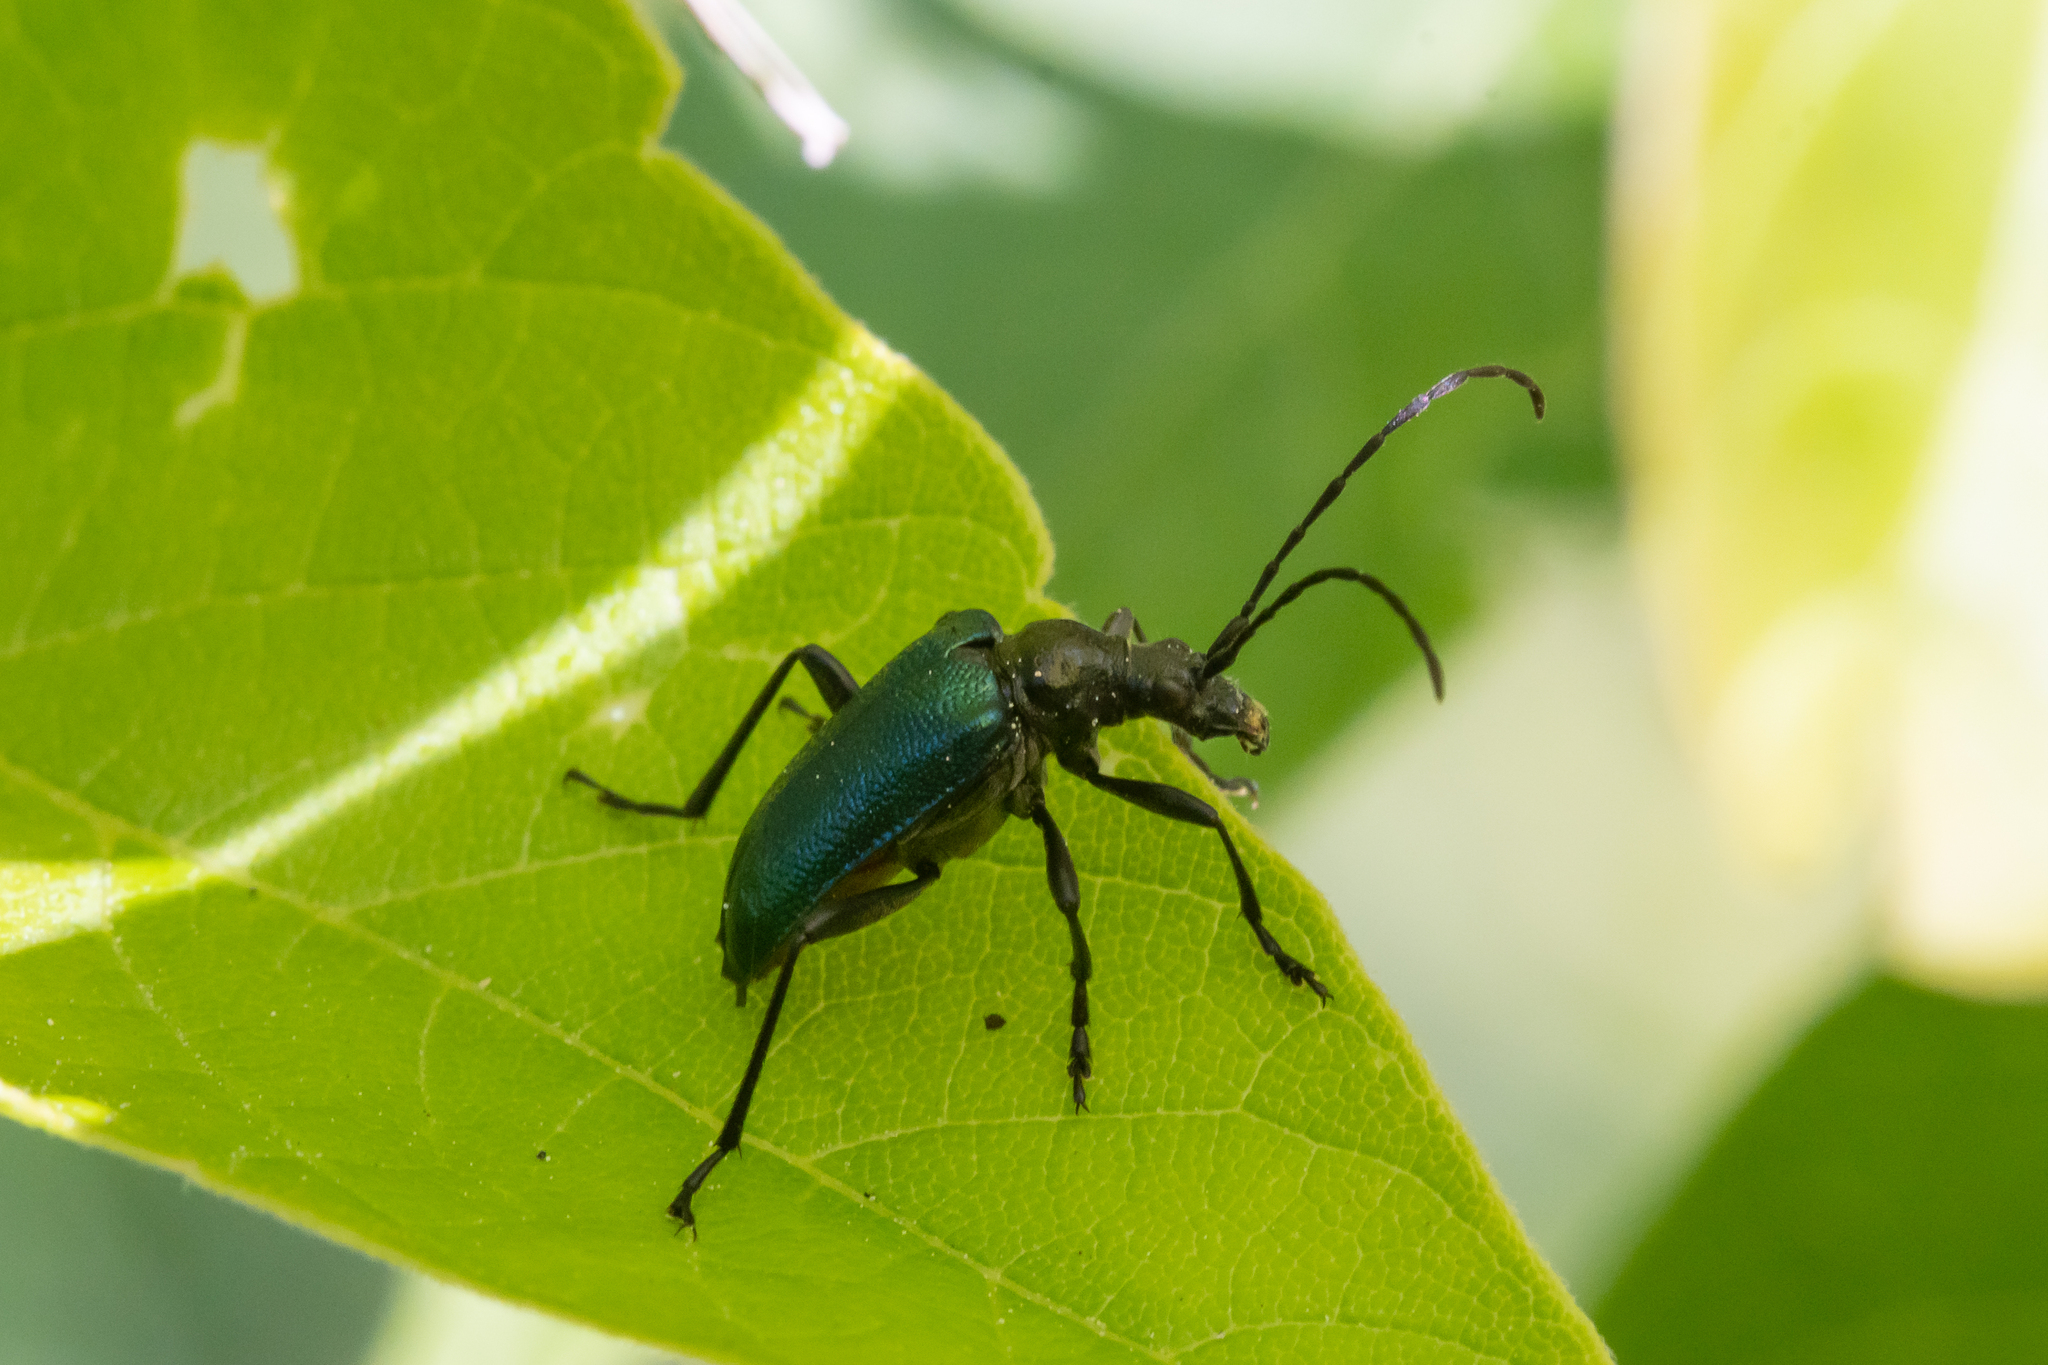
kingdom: Animalia
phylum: Arthropoda
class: Insecta
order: Coleoptera
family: Cerambycidae
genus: Gaurotes
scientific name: Gaurotes virginea
